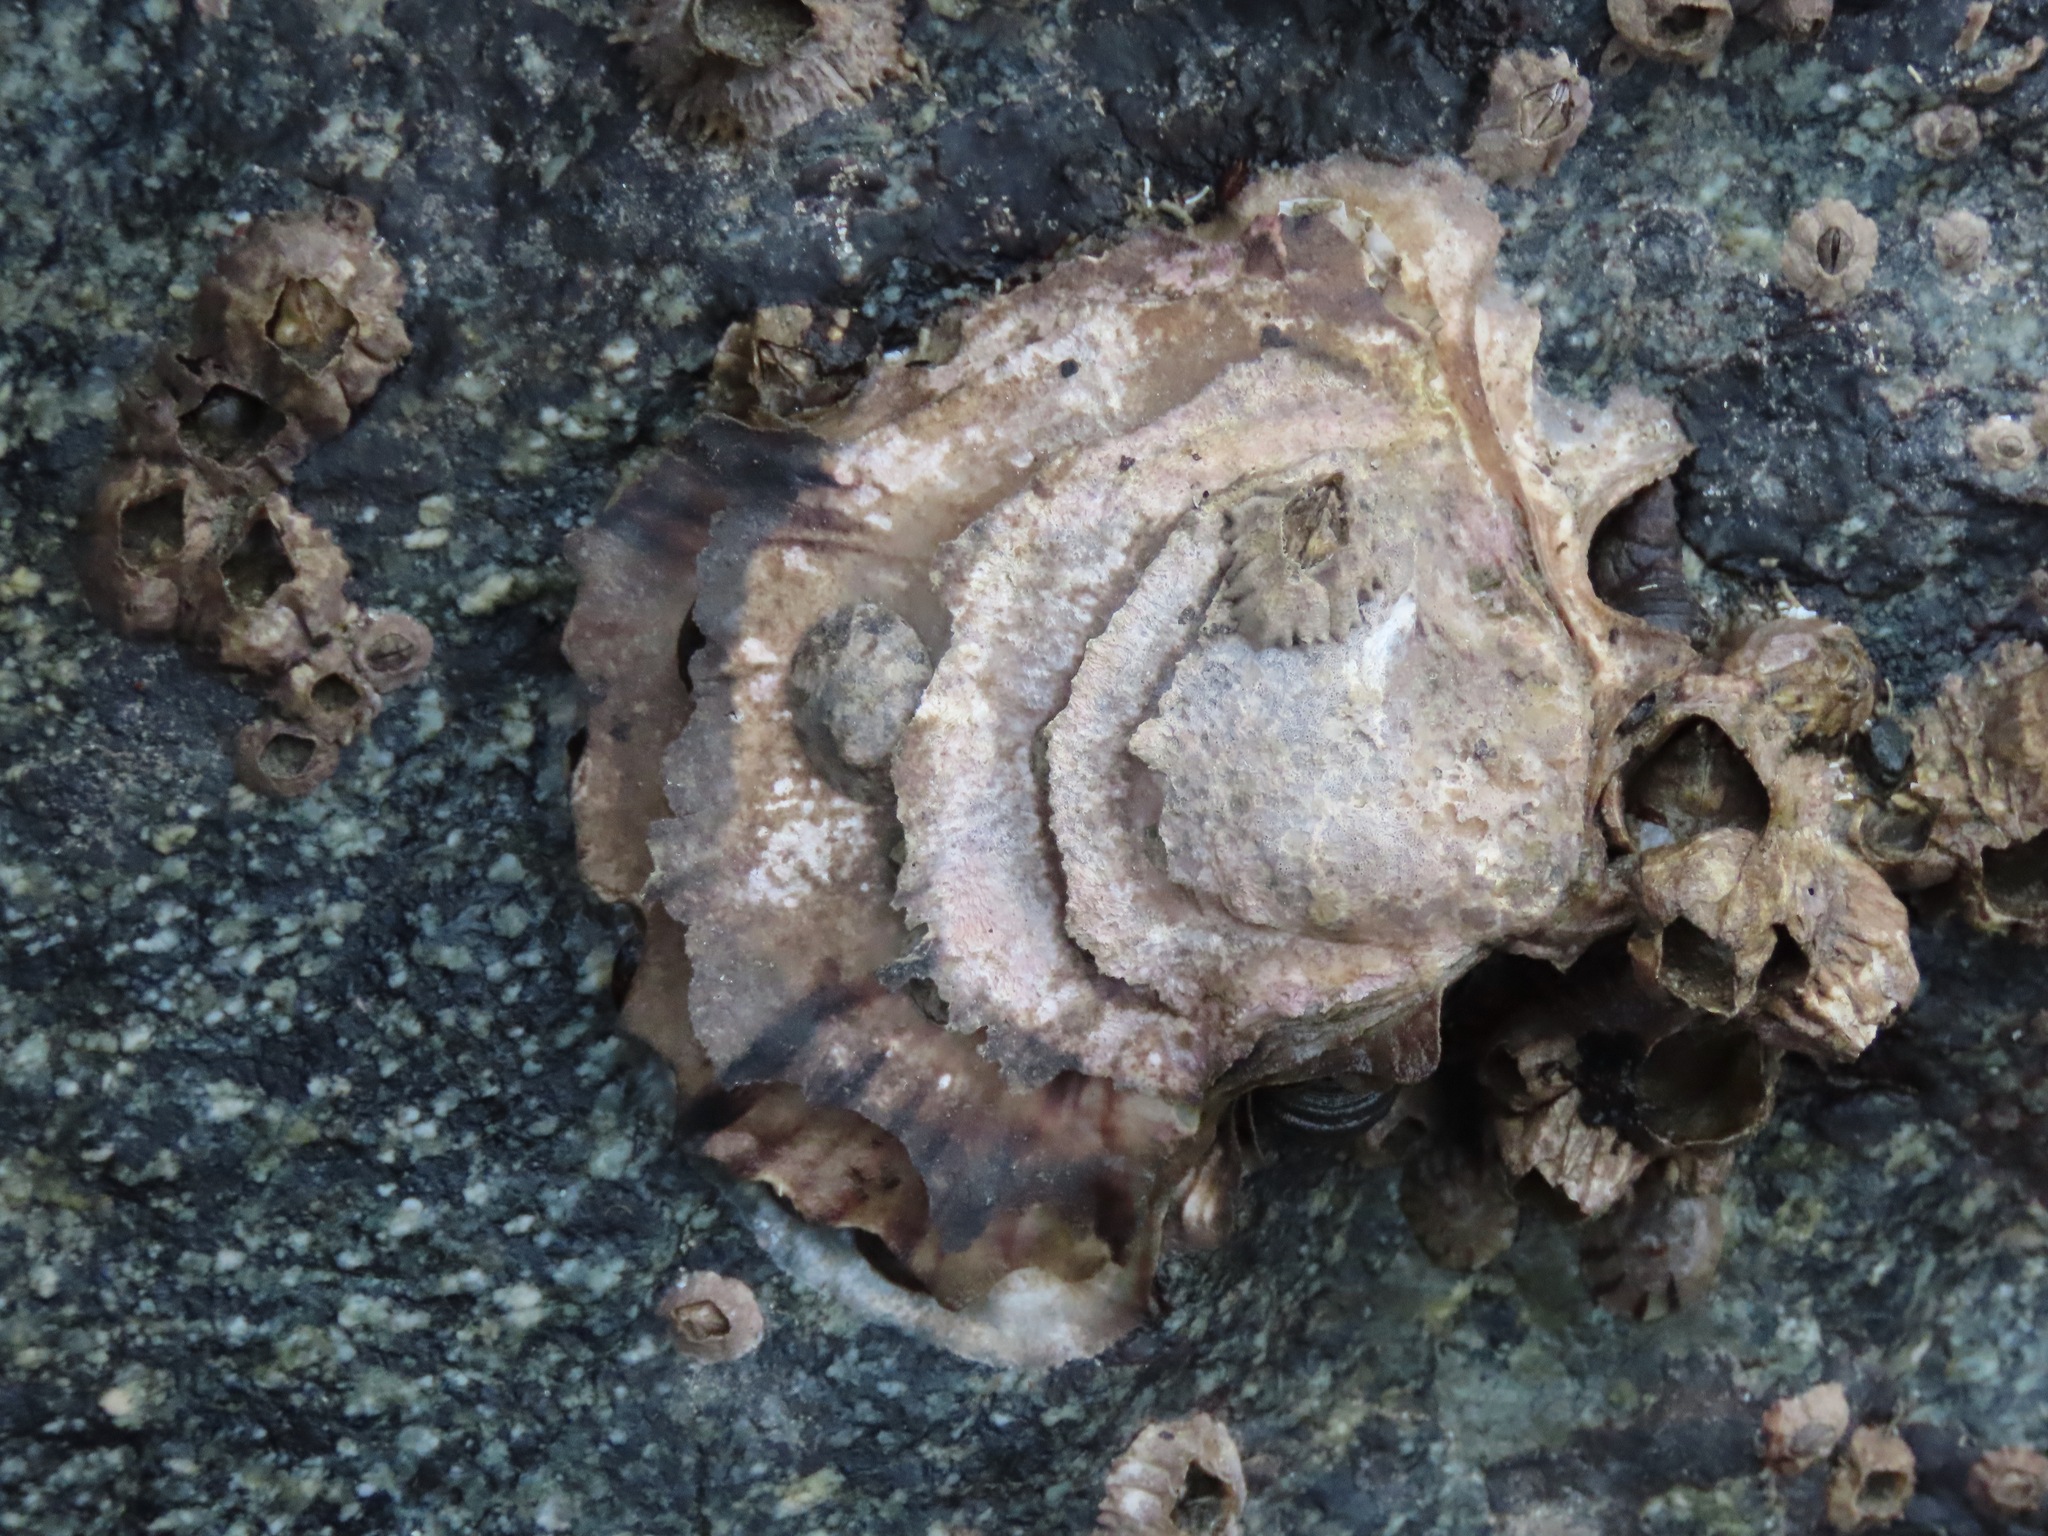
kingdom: Animalia
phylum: Mollusca
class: Bivalvia
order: Ostreida
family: Ostreidae
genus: Magallana
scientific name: Magallana gigas
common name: Pacific oyster
